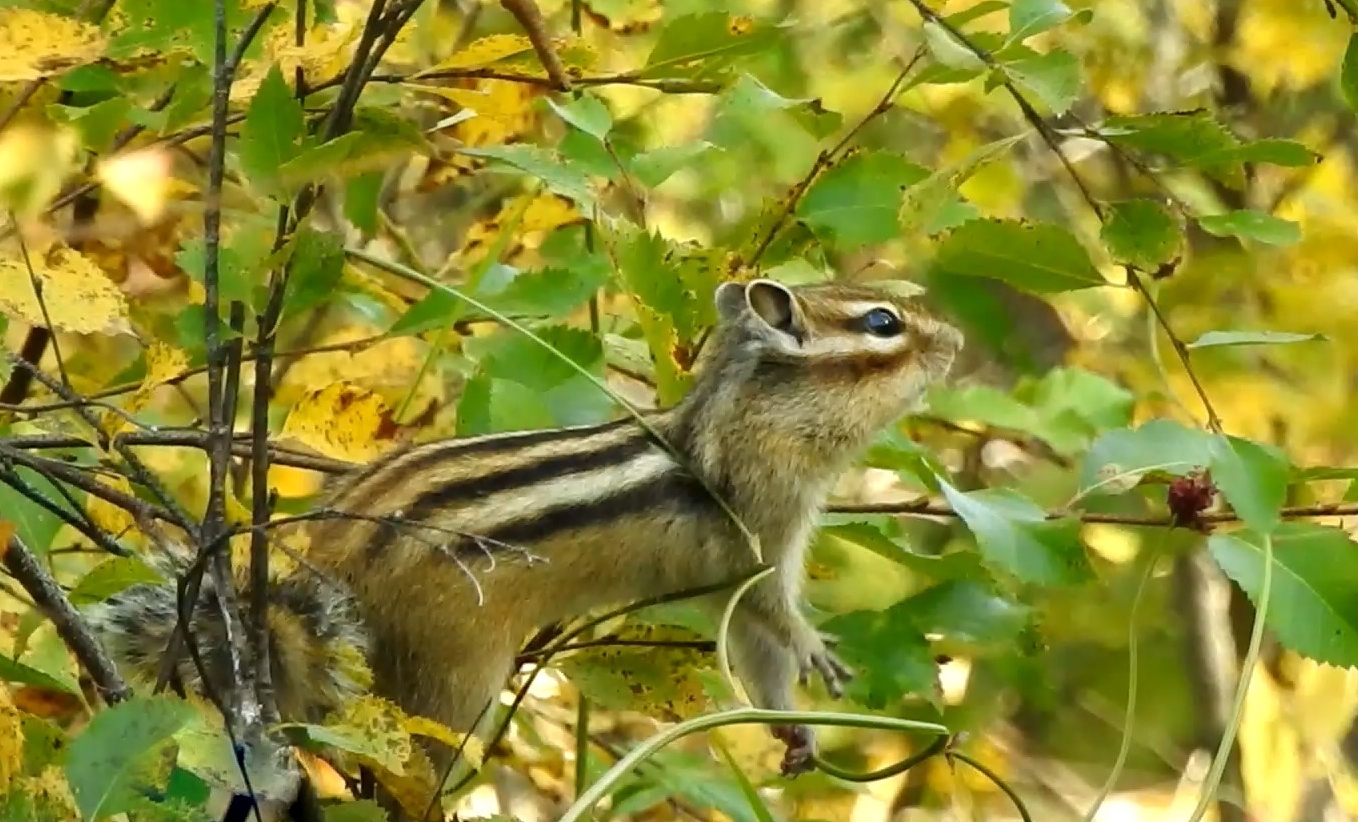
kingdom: Animalia
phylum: Chordata
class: Mammalia
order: Rodentia
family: Sciuridae
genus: Tamias
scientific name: Tamias sibiricus
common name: Siberian chipmunk
